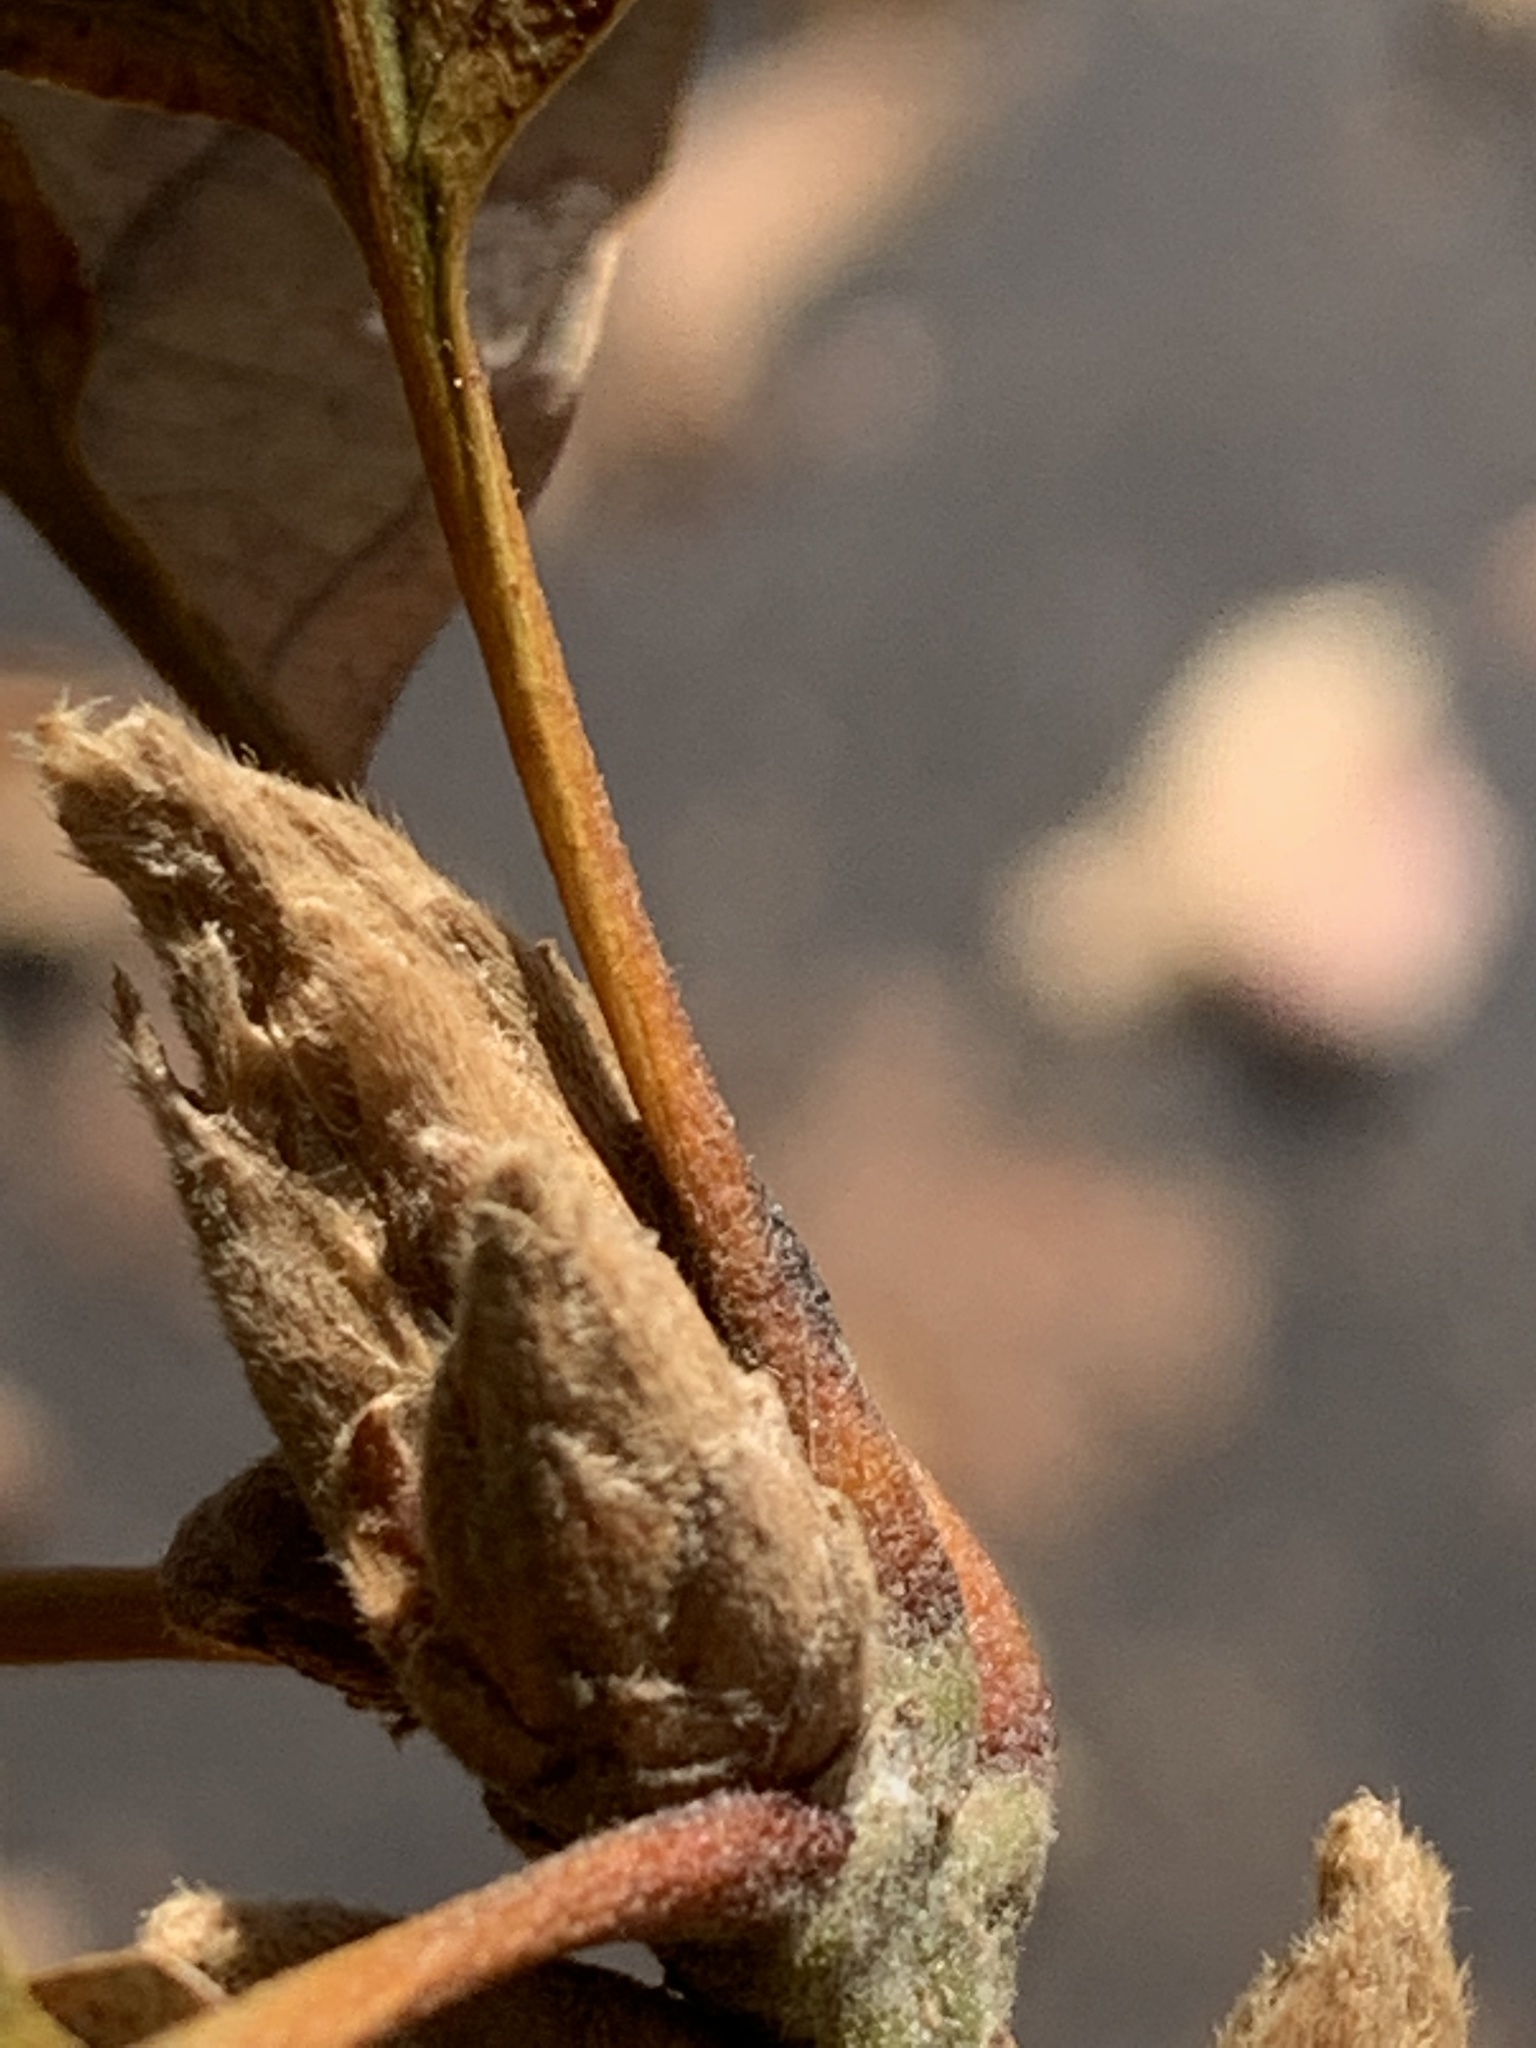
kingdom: Plantae
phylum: Tracheophyta
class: Magnoliopsida
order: Fagales
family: Fagaceae
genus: Quercus
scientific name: Quercus garryana
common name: Garry oak
